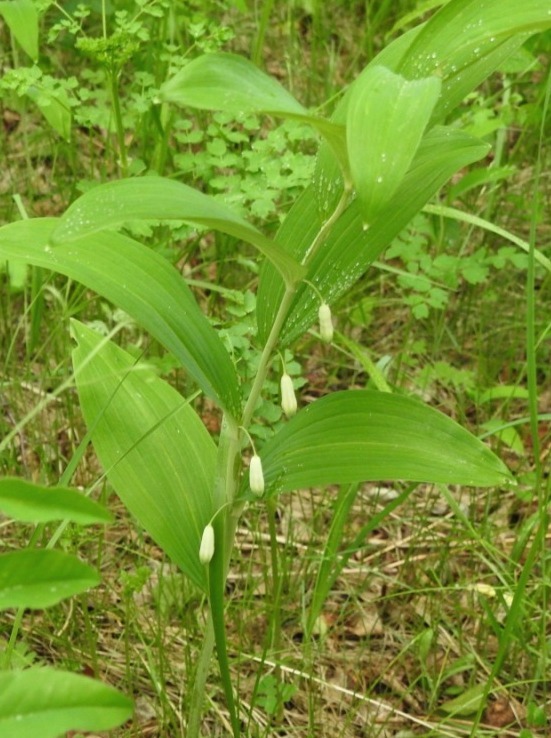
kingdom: Plantae
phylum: Tracheophyta
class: Liliopsida
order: Asparagales
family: Asparagaceae
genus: Polygonatum
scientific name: Polygonatum odoratum
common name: Angular solomon's-seal
